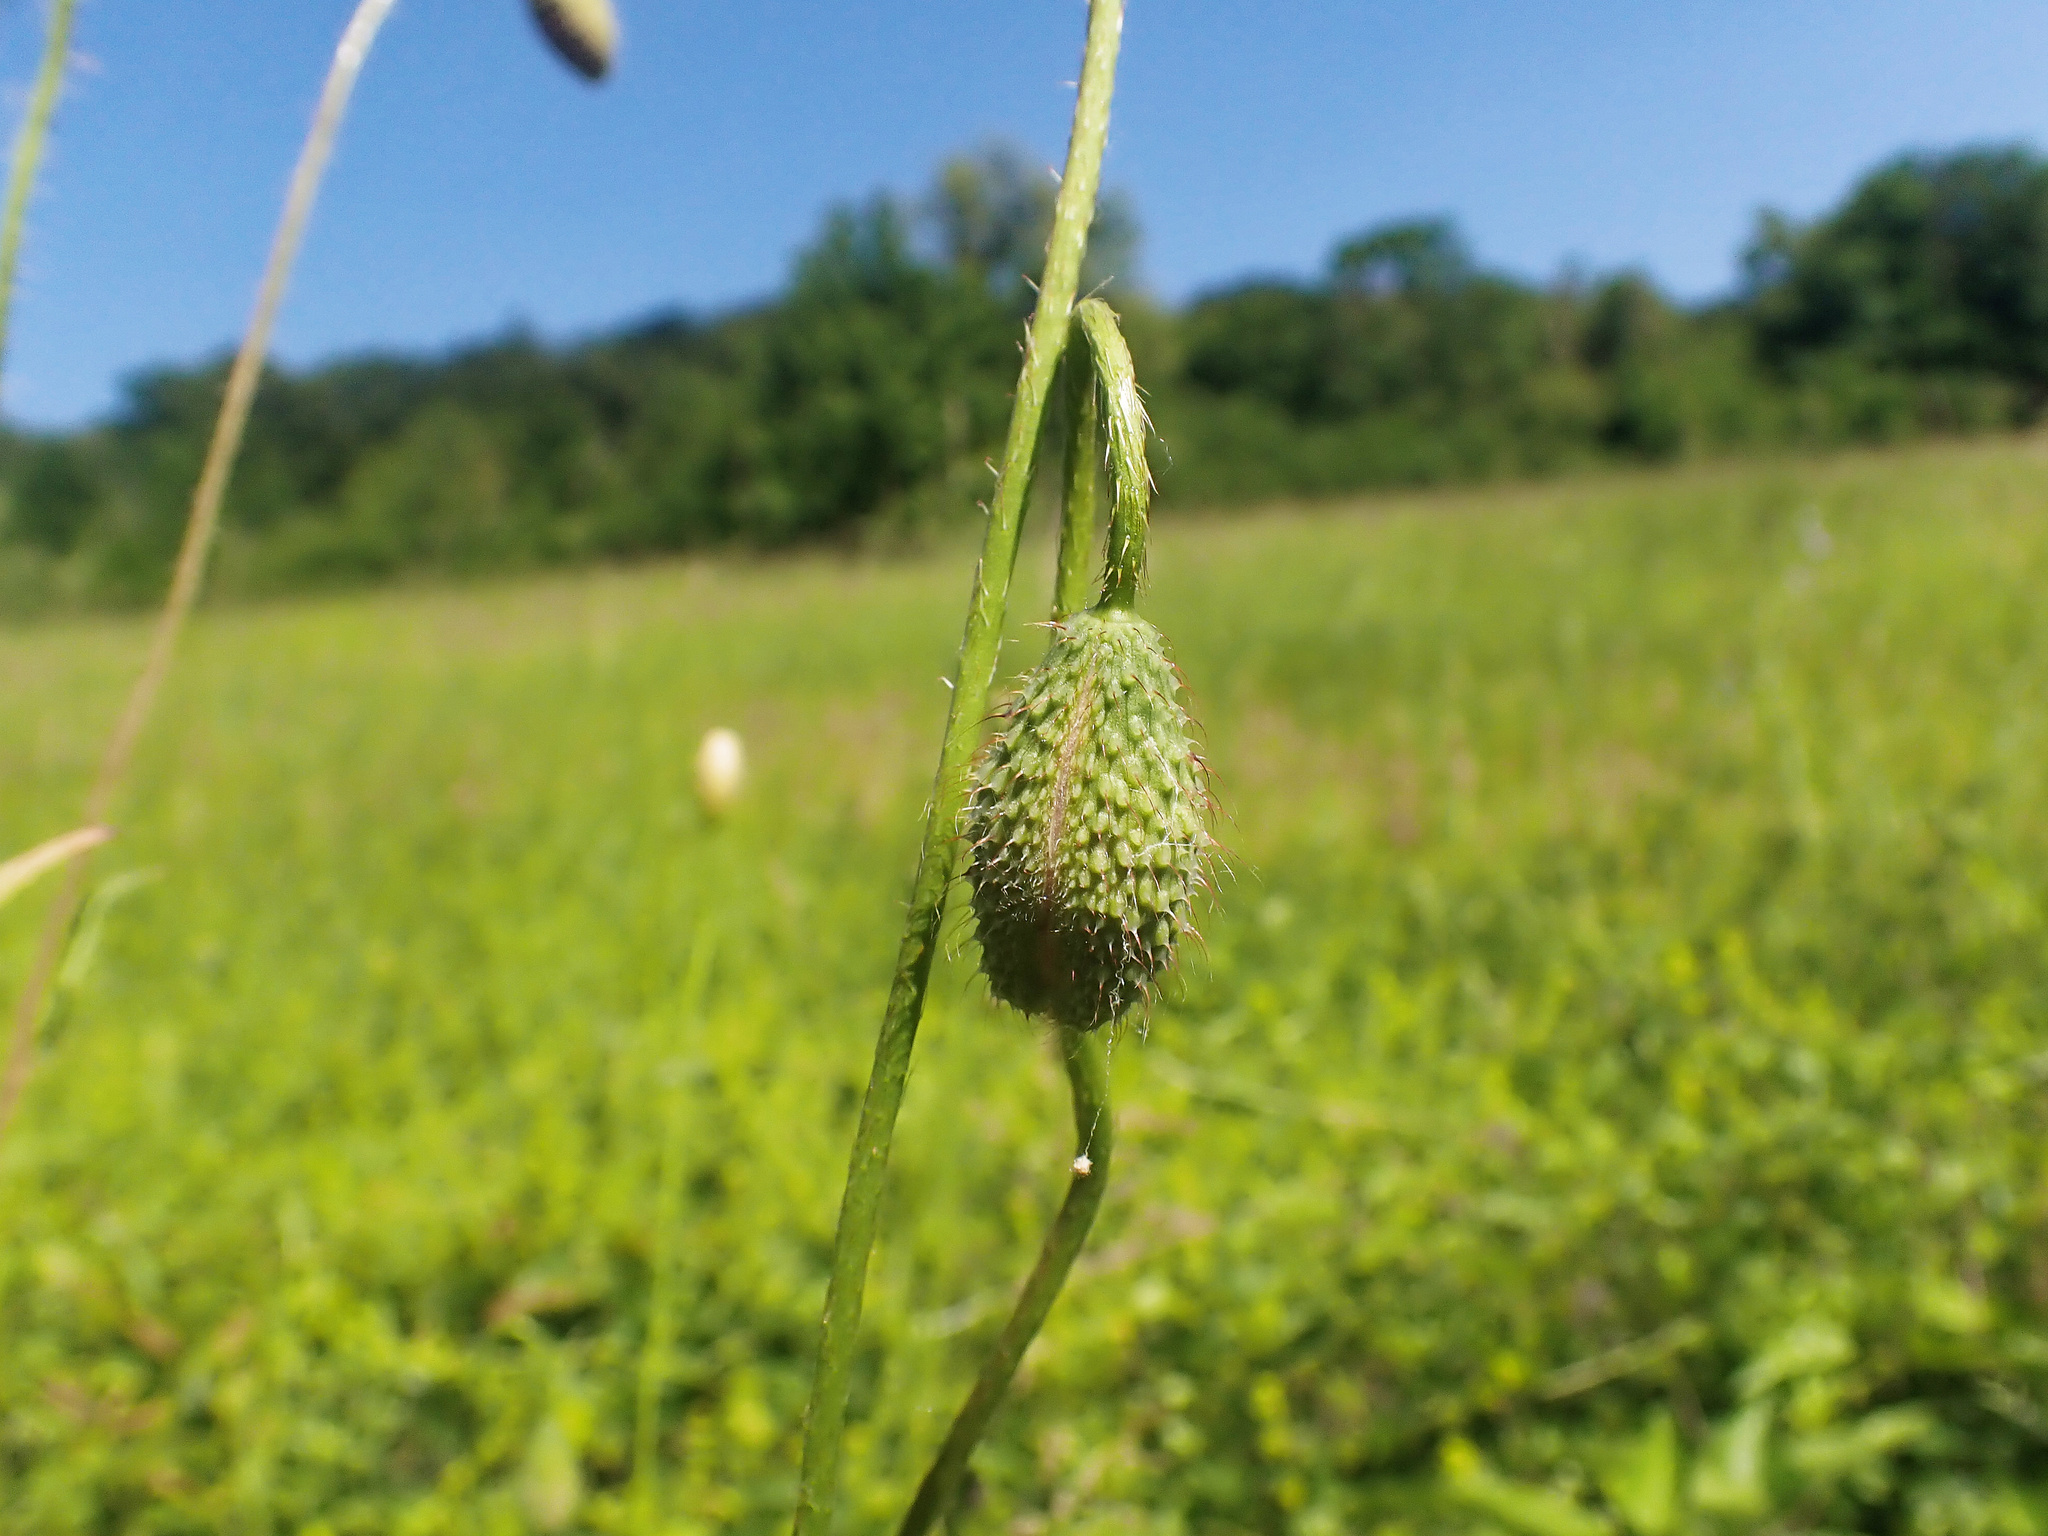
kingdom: Plantae
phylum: Tracheophyta
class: Magnoliopsida
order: Ranunculales
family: Papaveraceae
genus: Papaver
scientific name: Papaver rhoeas
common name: Corn poppy
